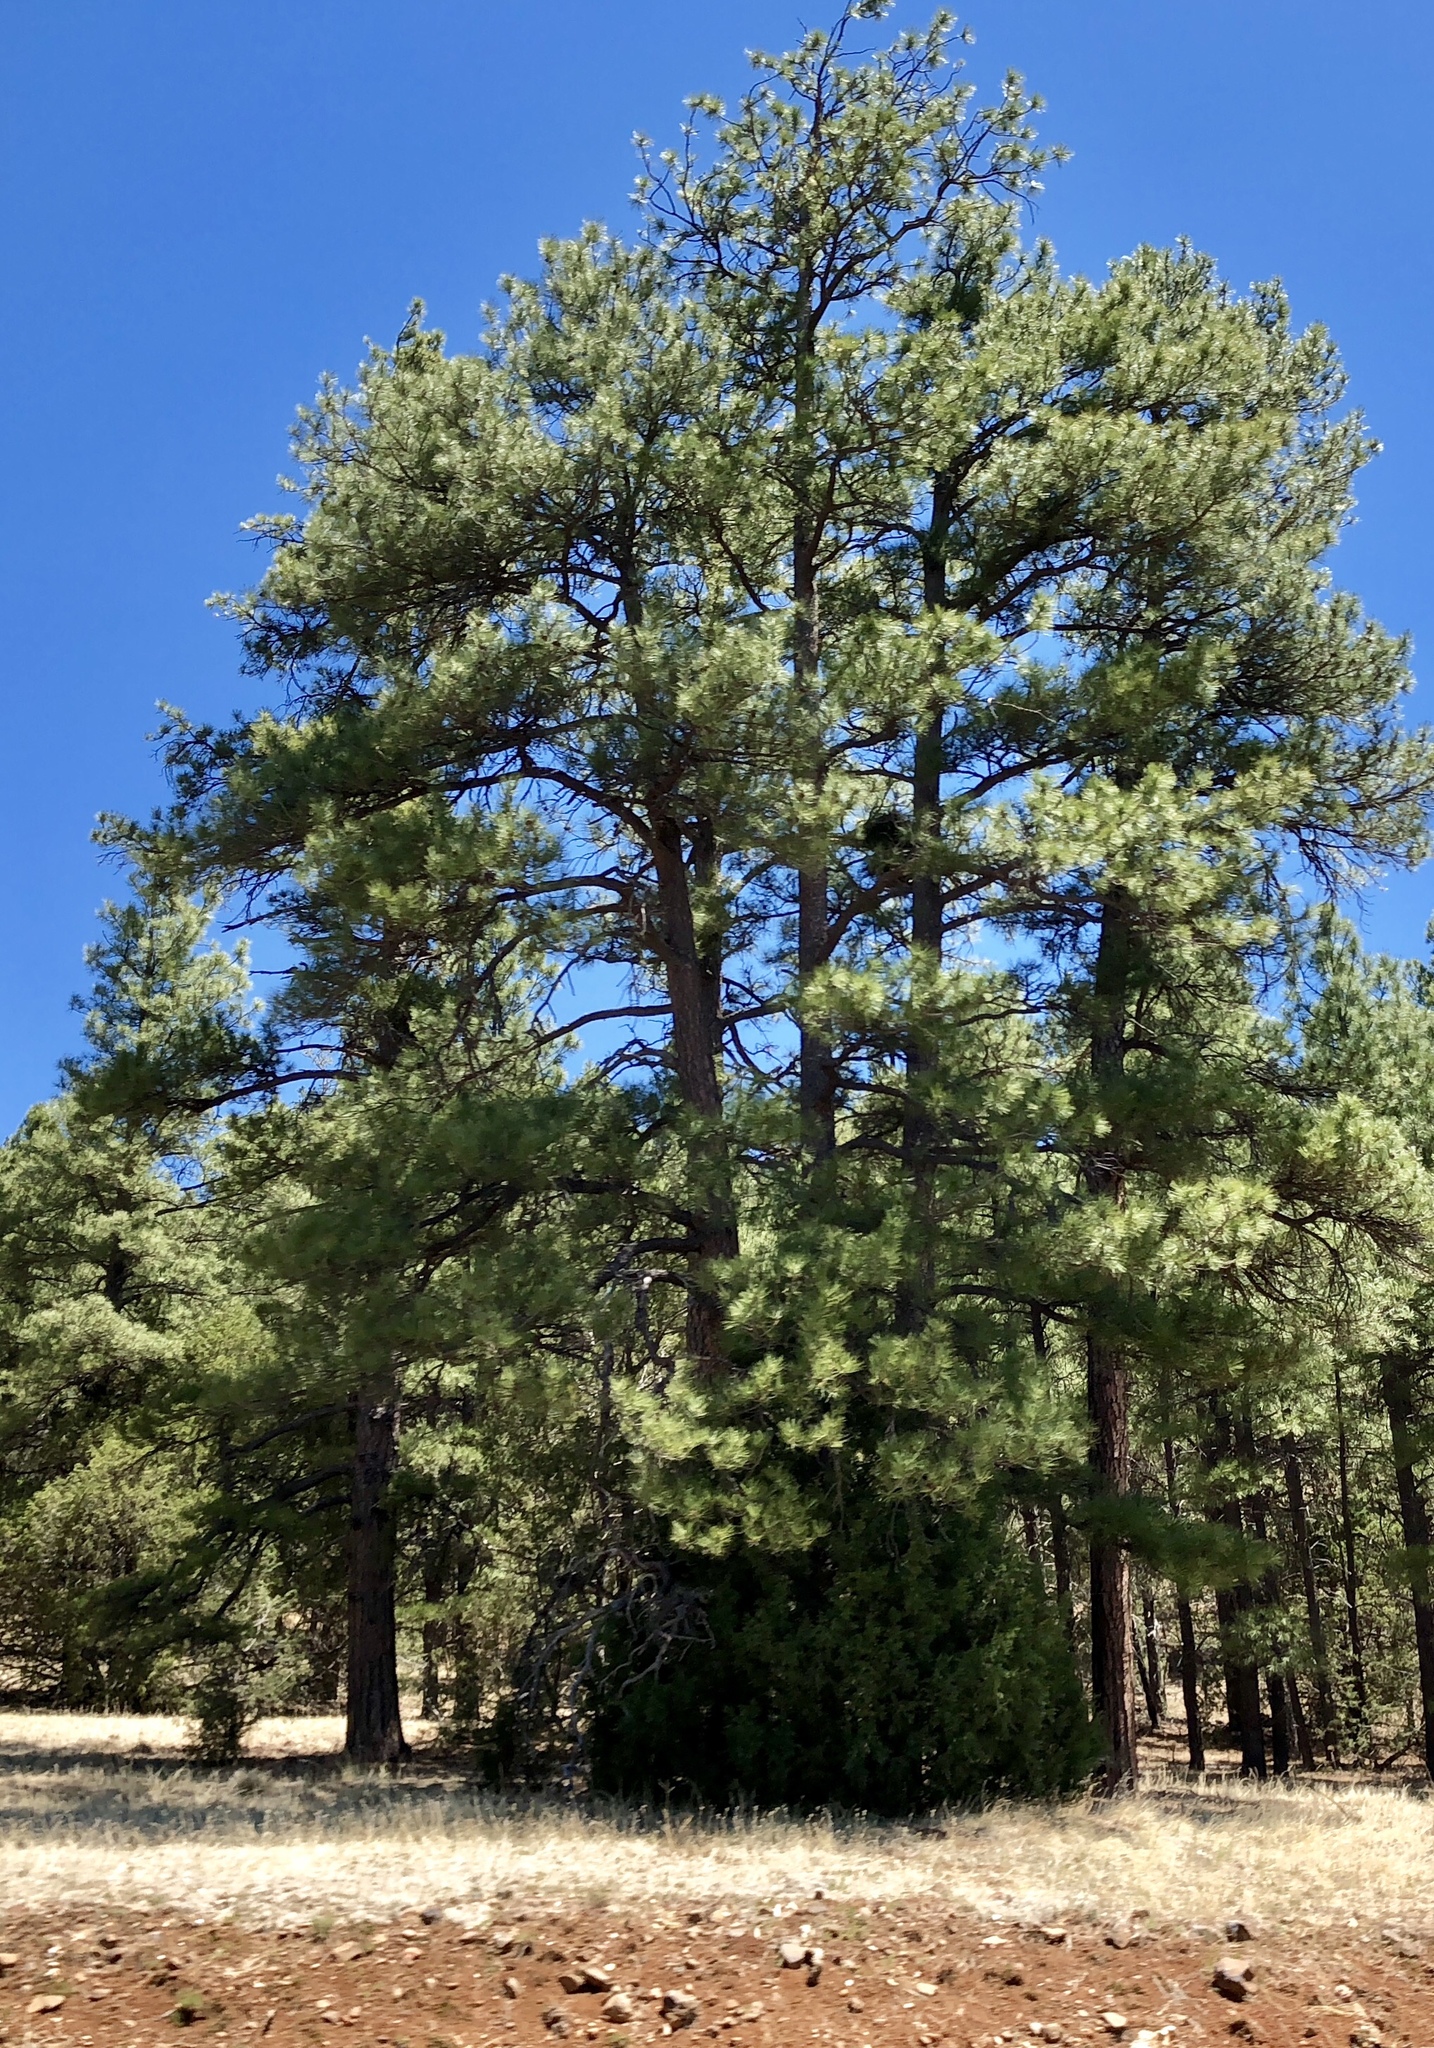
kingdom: Plantae
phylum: Tracheophyta
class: Pinopsida
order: Pinales
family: Pinaceae
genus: Pinus
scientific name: Pinus ponderosa
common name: Western yellow-pine
